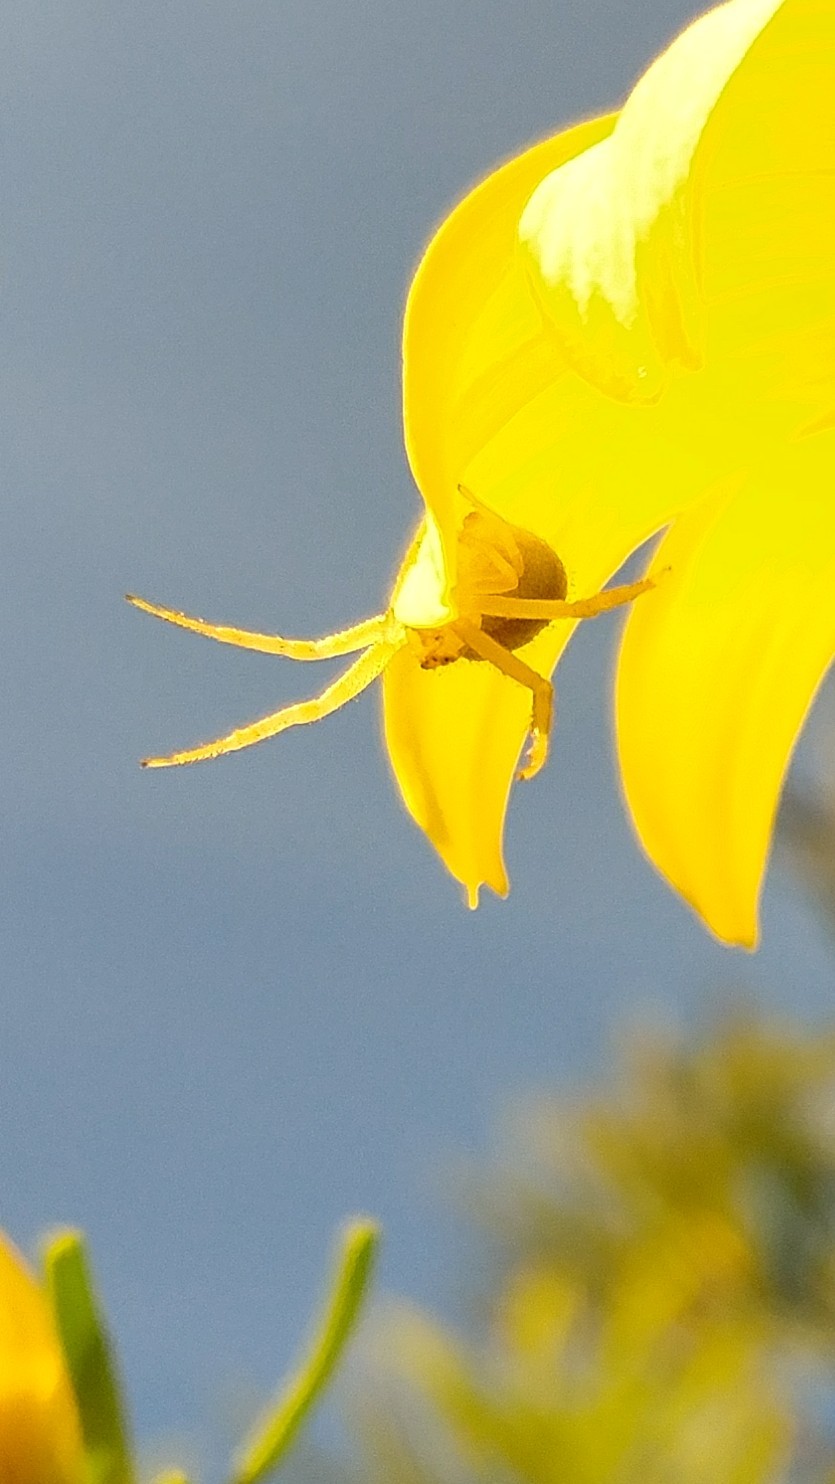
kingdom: Animalia
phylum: Arthropoda
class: Arachnida
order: Araneae
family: Thomisidae
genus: Misumena
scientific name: Misumena vatia
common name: Goldenrod crab spider
